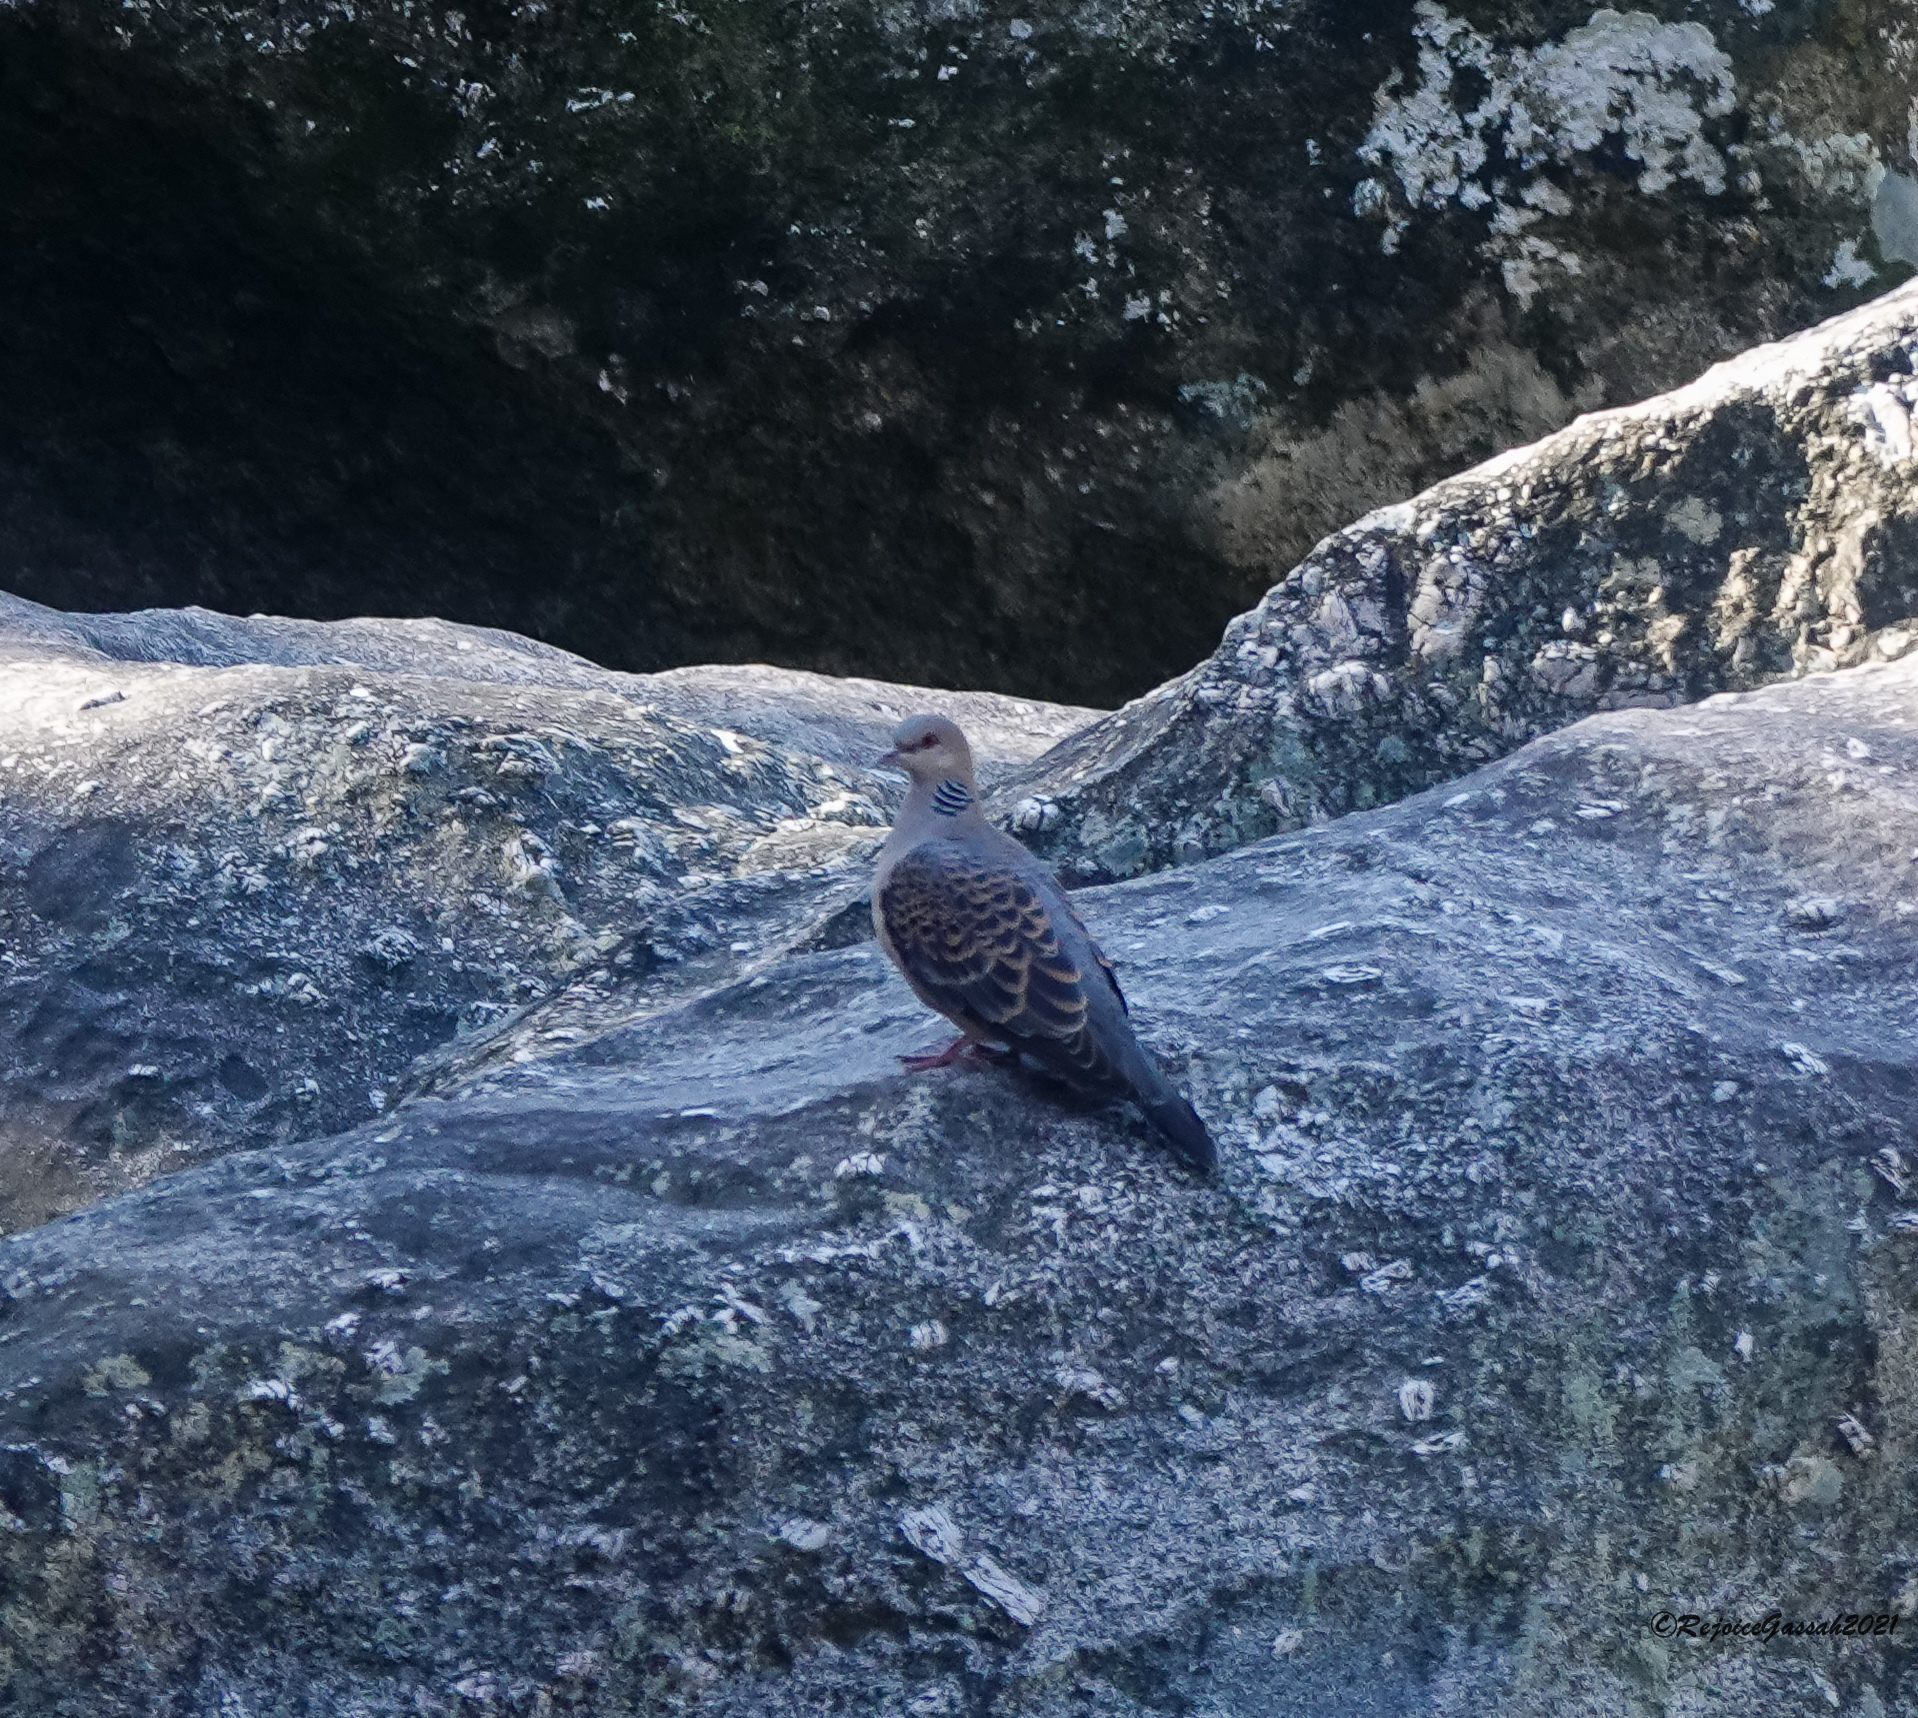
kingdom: Animalia
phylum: Chordata
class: Aves
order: Columbiformes
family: Columbidae
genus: Streptopelia
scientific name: Streptopelia orientalis
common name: Oriental turtle dove
